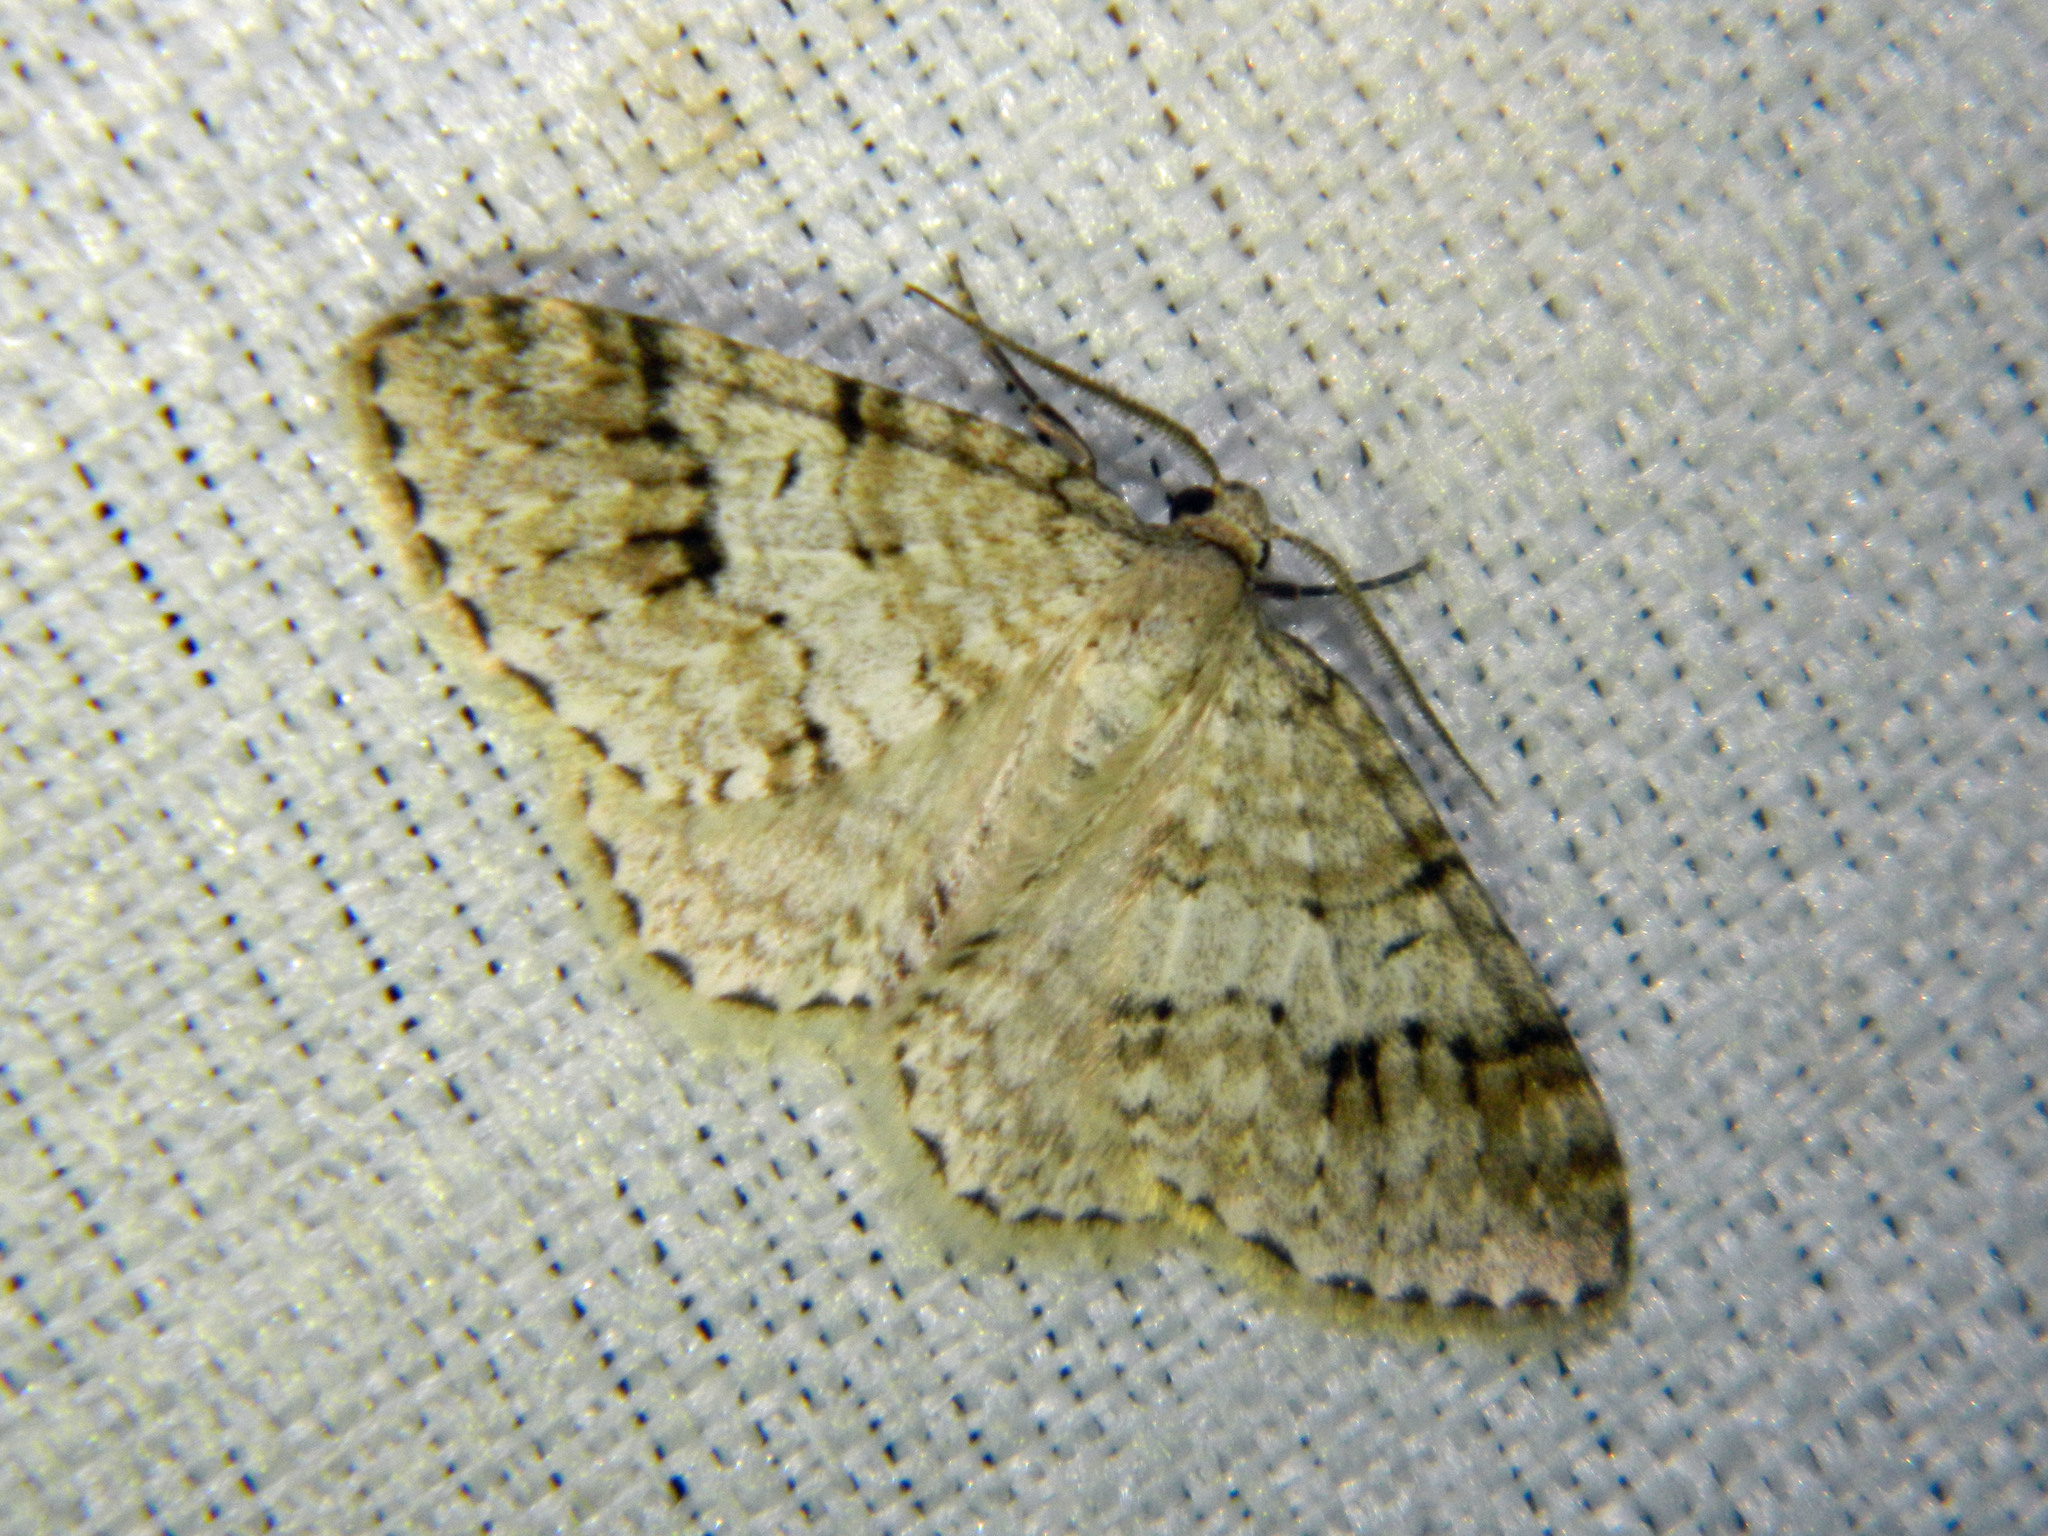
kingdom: Animalia
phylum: Arthropoda
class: Insecta
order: Lepidoptera
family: Geometridae
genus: Venusia
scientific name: Venusia cambrica
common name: Welsh wave
